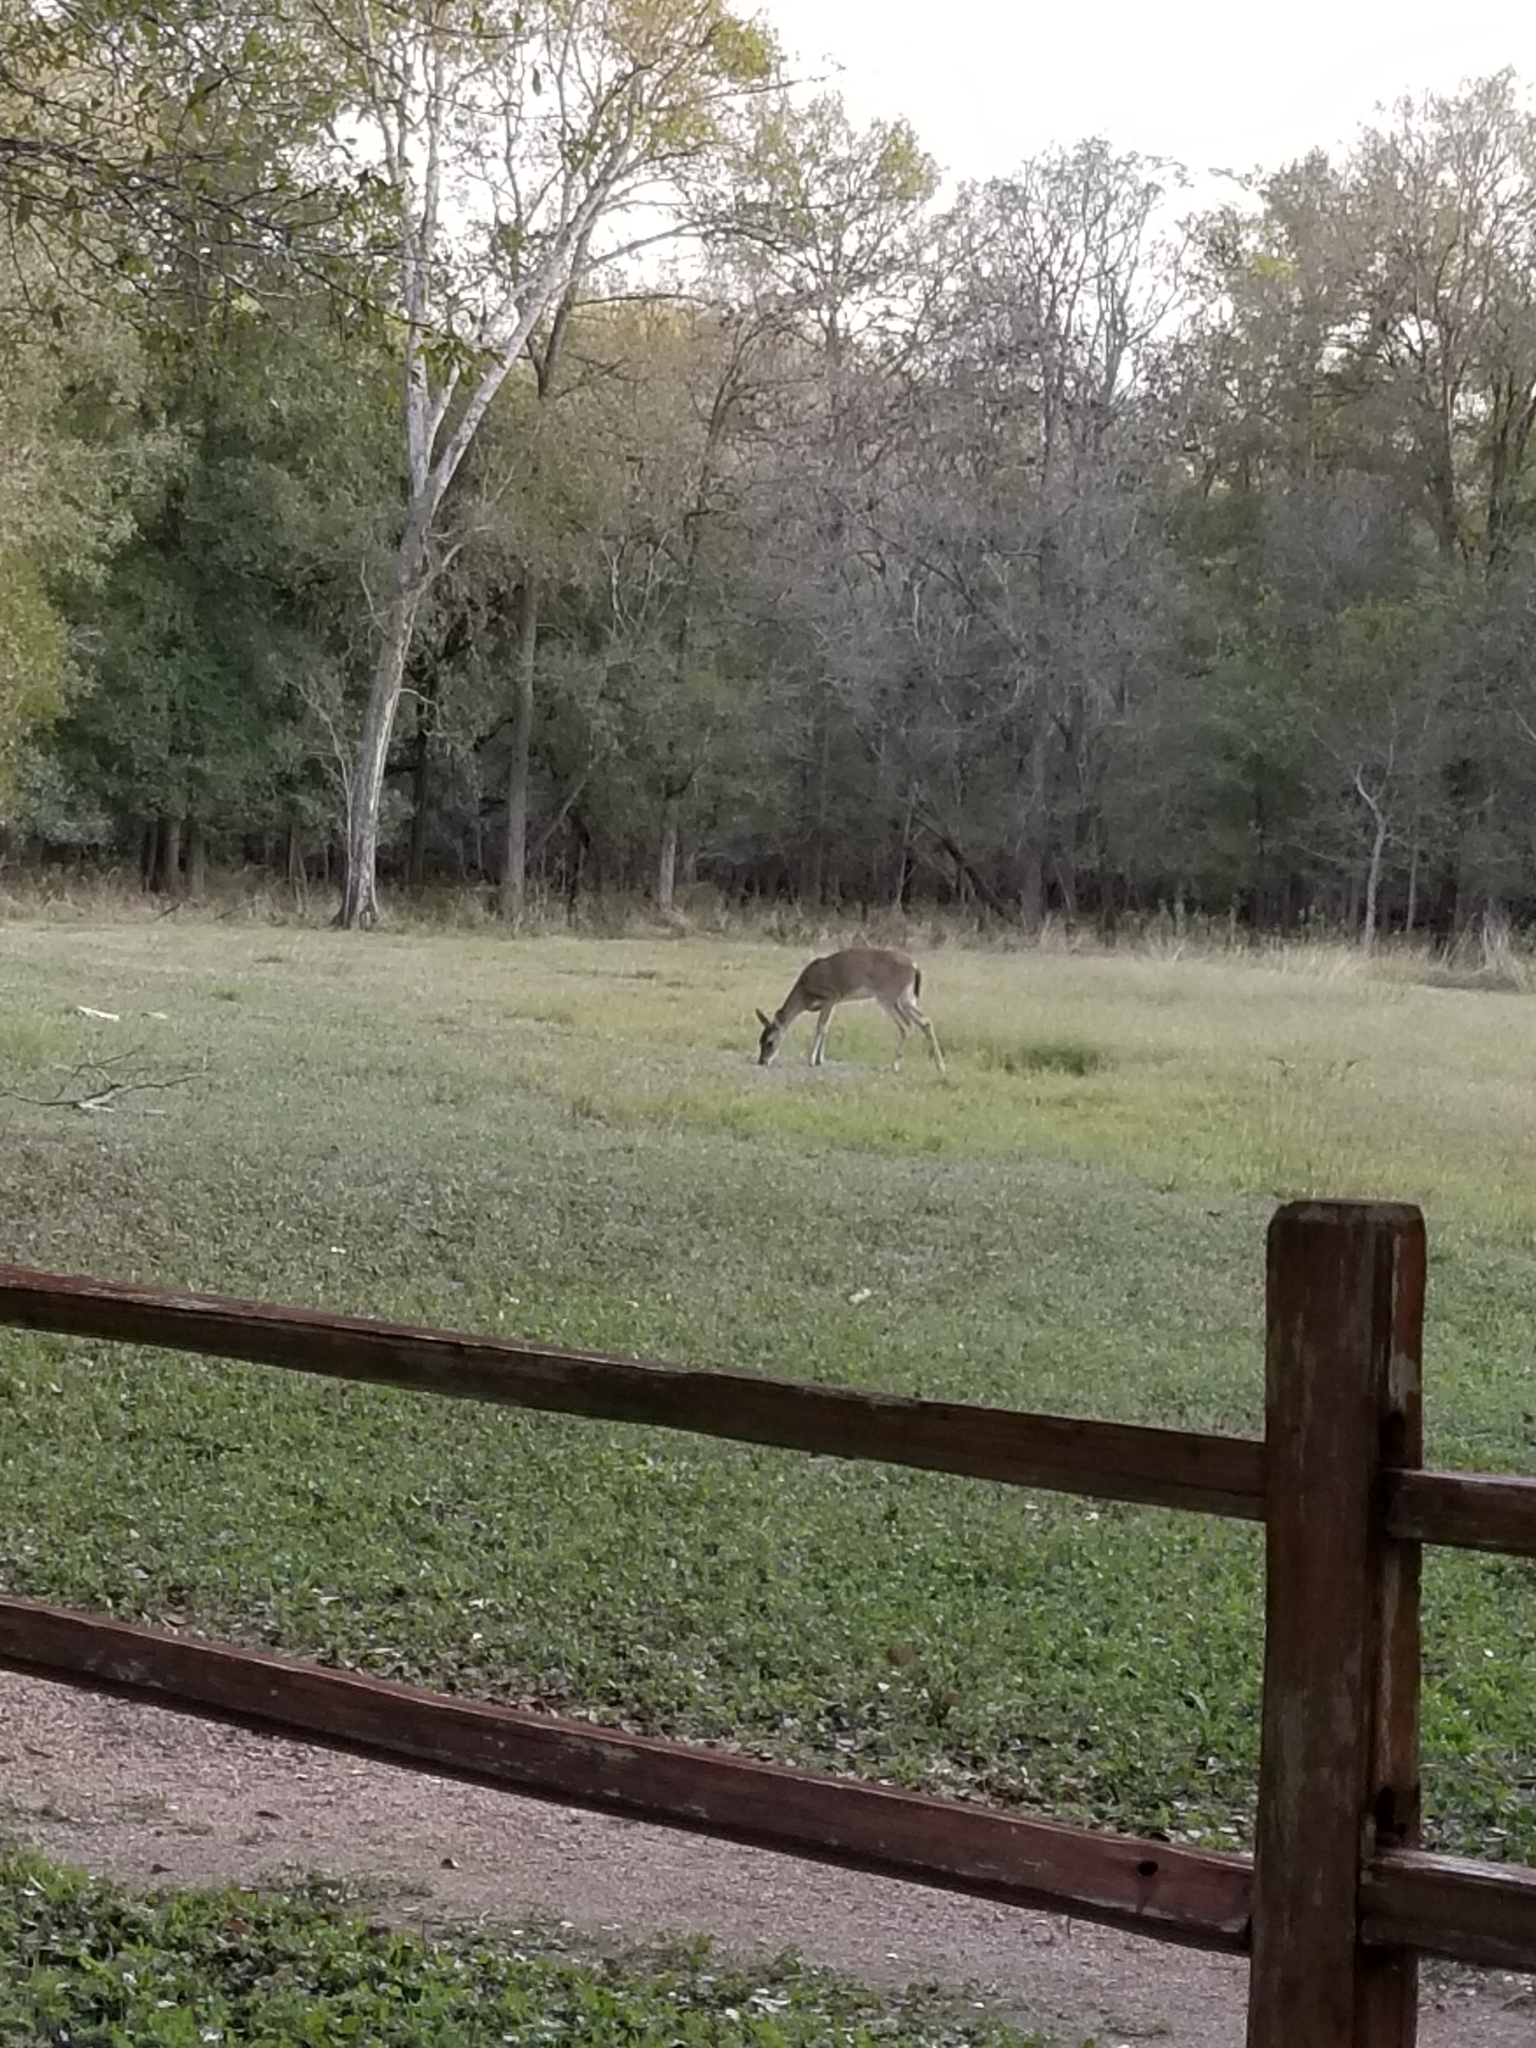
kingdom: Animalia
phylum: Chordata
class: Mammalia
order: Artiodactyla
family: Cervidae
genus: Odocoileus
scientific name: Odocoileus virginianus
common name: White-tailed deer
